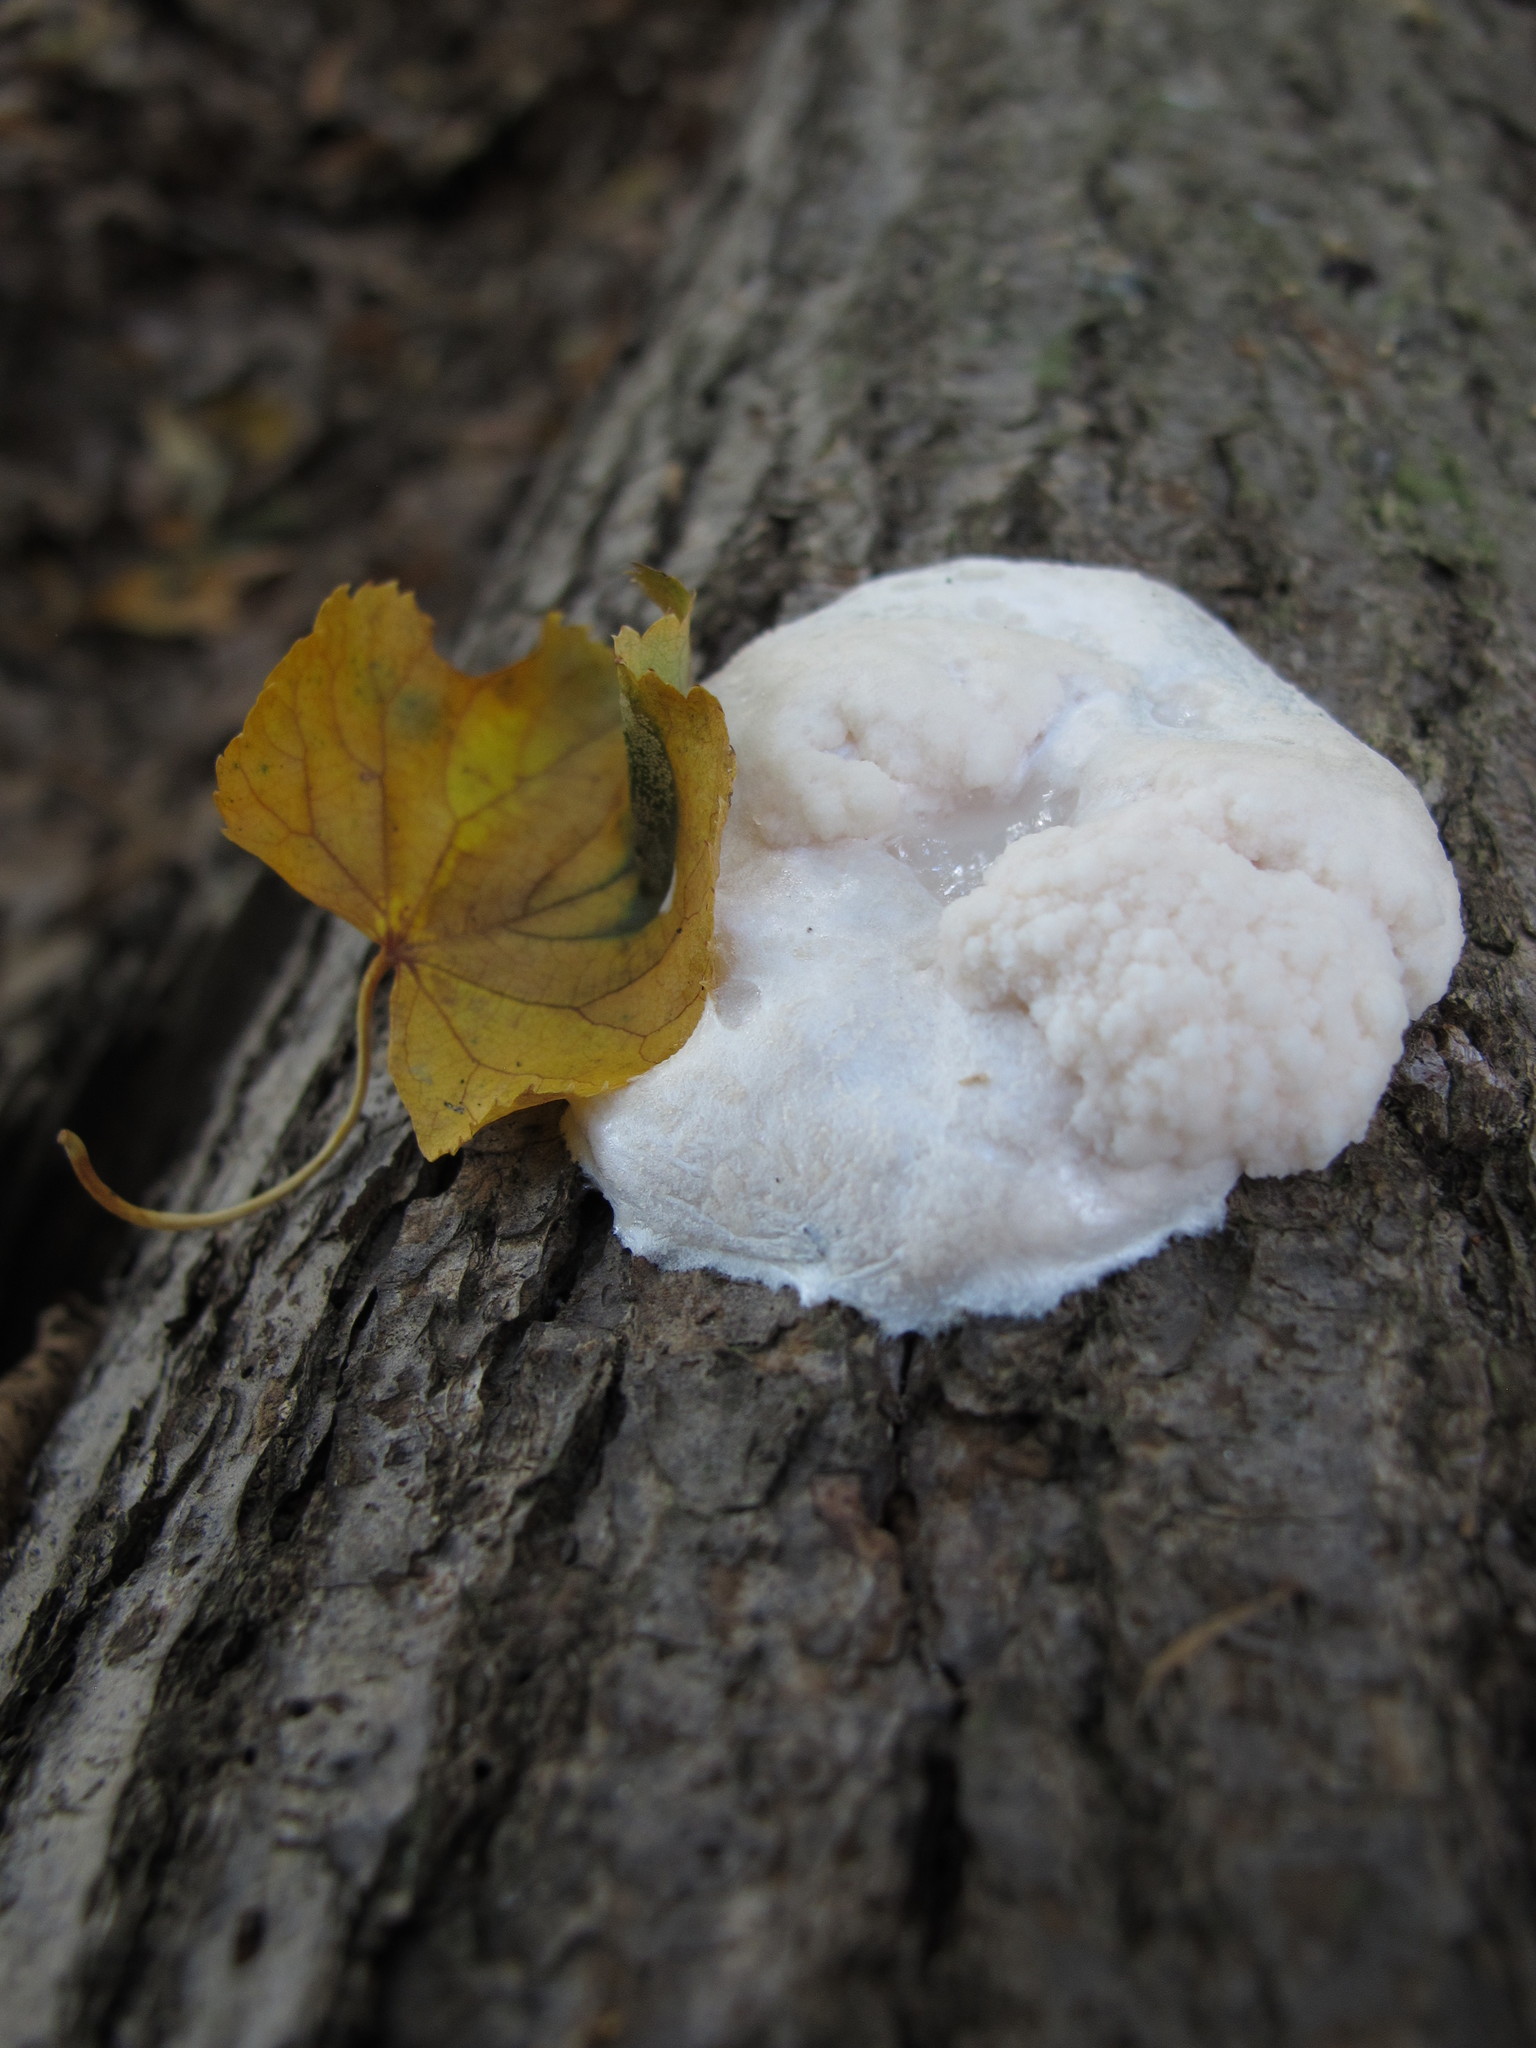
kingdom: Protozoa
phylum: Mycetozoa
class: Myxomycetes
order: Cribrariales
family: Tubiferaceae
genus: Reticularia
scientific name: Reticularia lycoperdon
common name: False puffball
